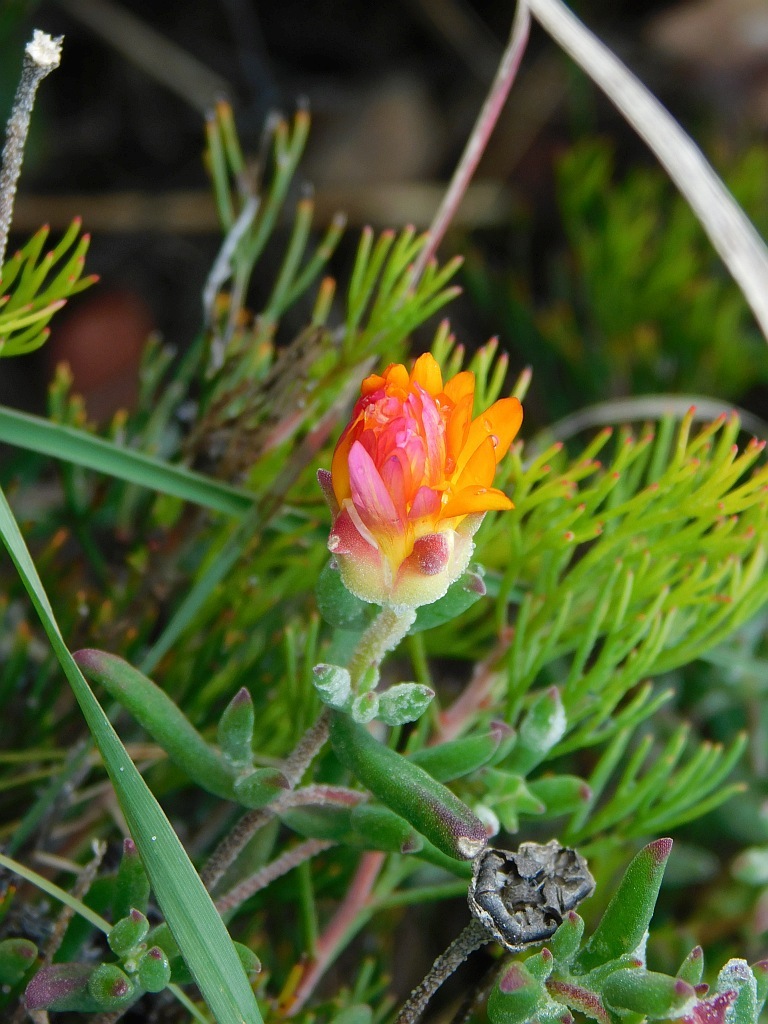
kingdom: Plantae
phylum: Tracheophyta
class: Magnoliopsida
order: Caryophyllales
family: Aizoaceae
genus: Drosanthemum
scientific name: Drosanthemum flavum
